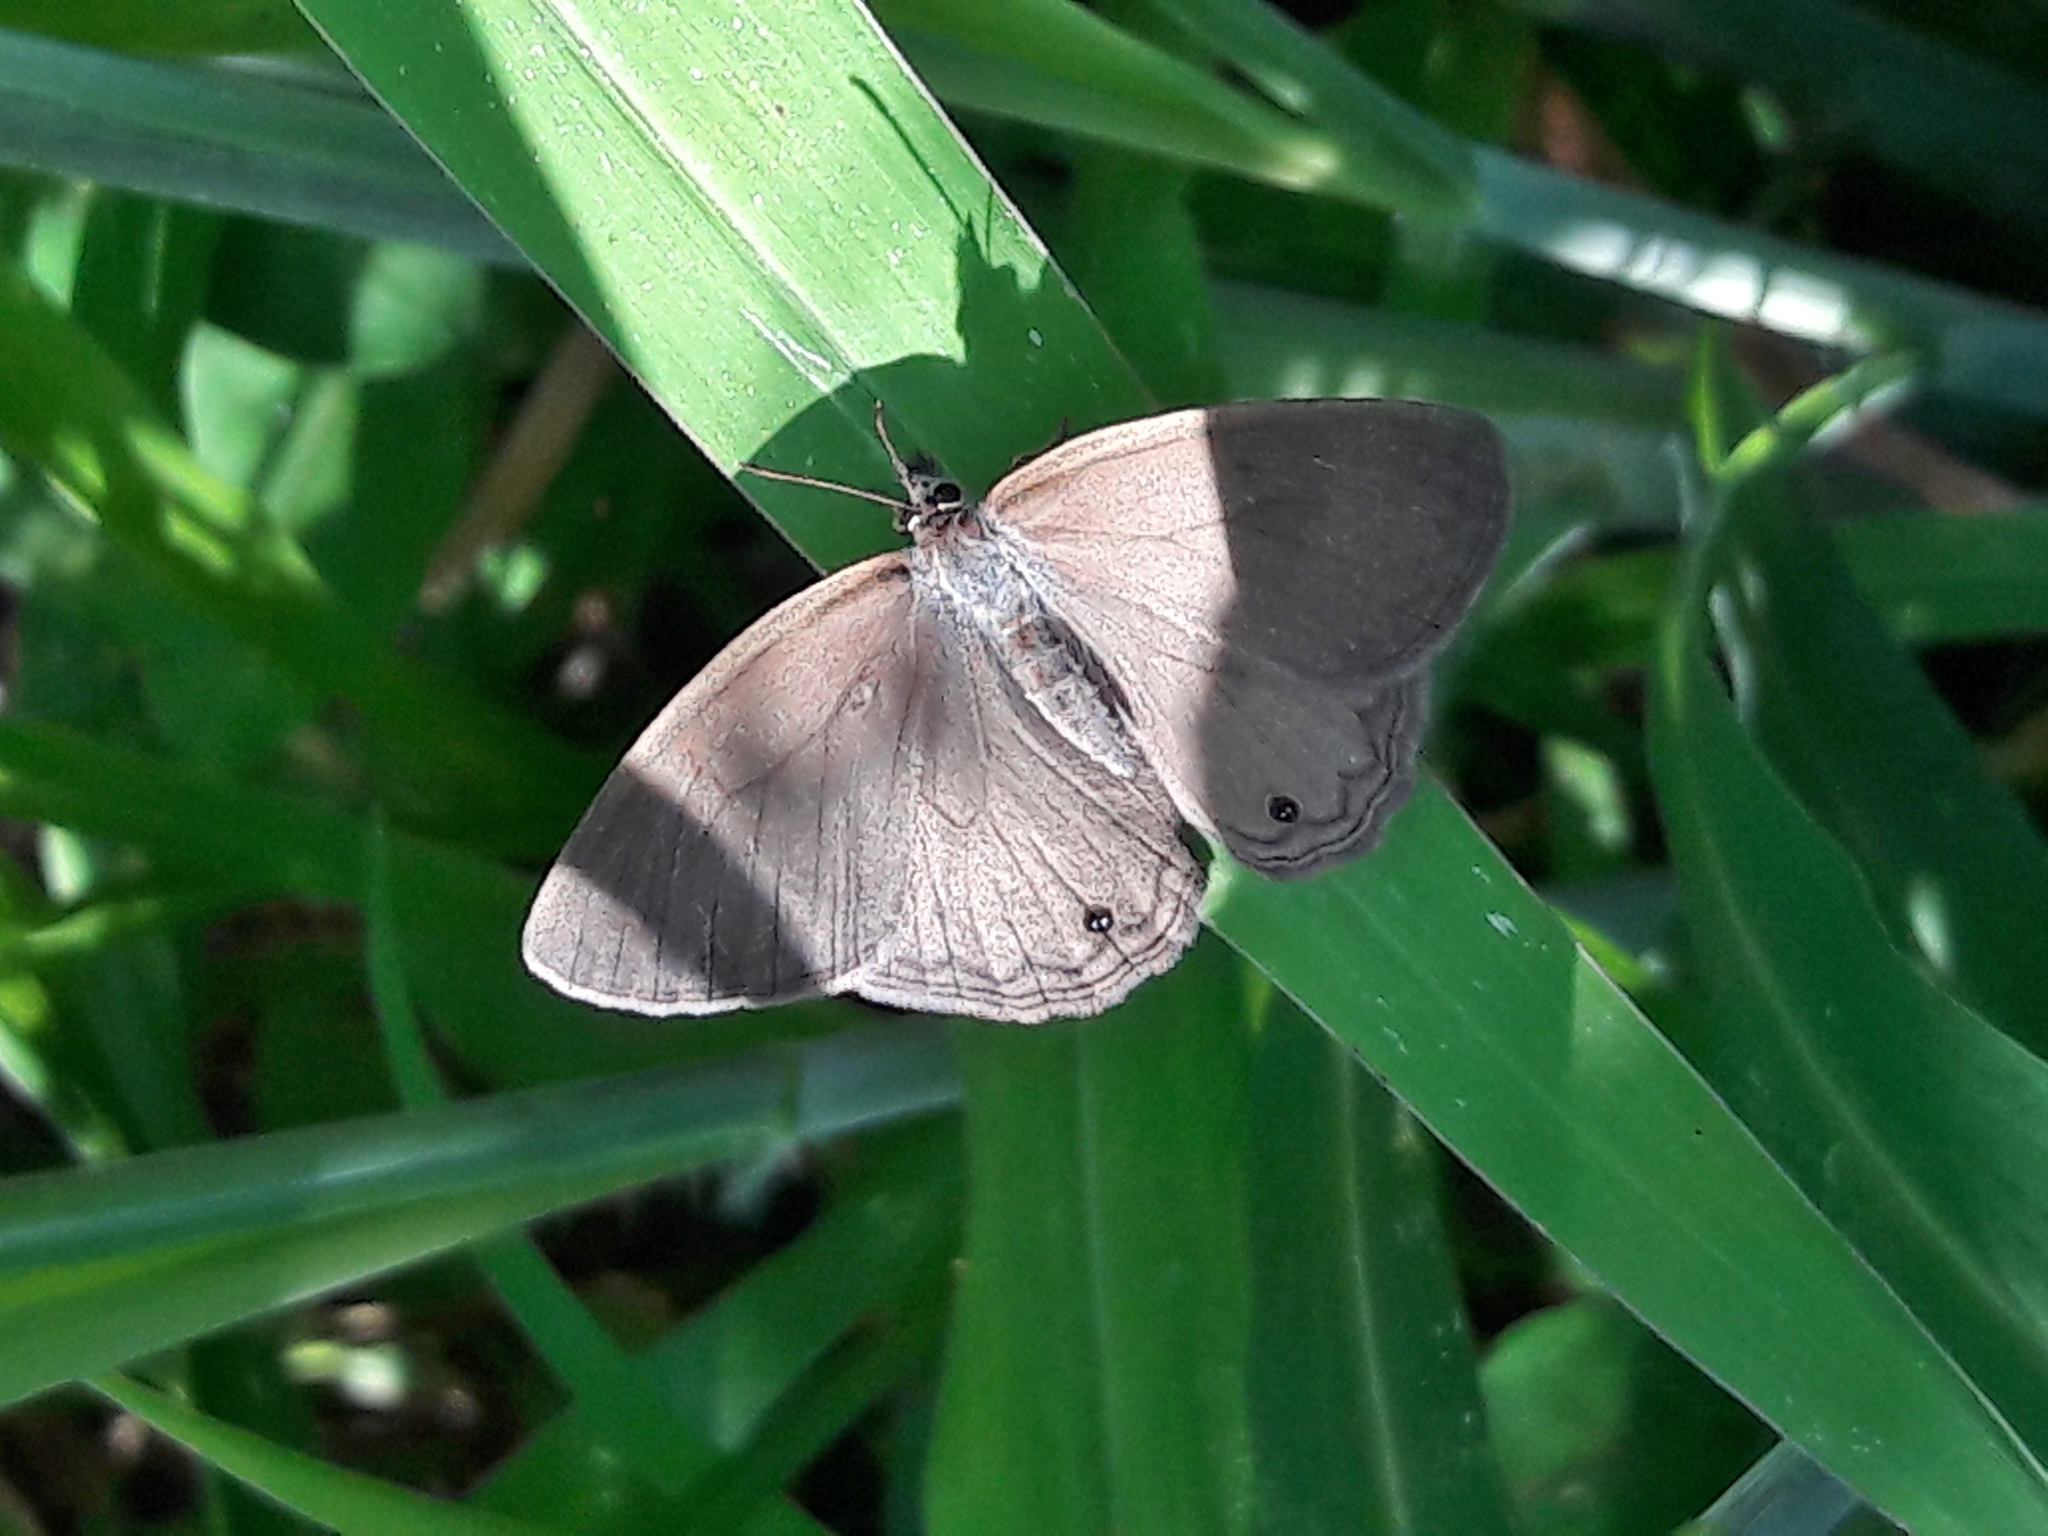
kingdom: Animalia
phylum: Arthropoda
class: Insecta
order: Lepidoptera
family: Nymphalidae
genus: Euptychiina
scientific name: Euptychiina
